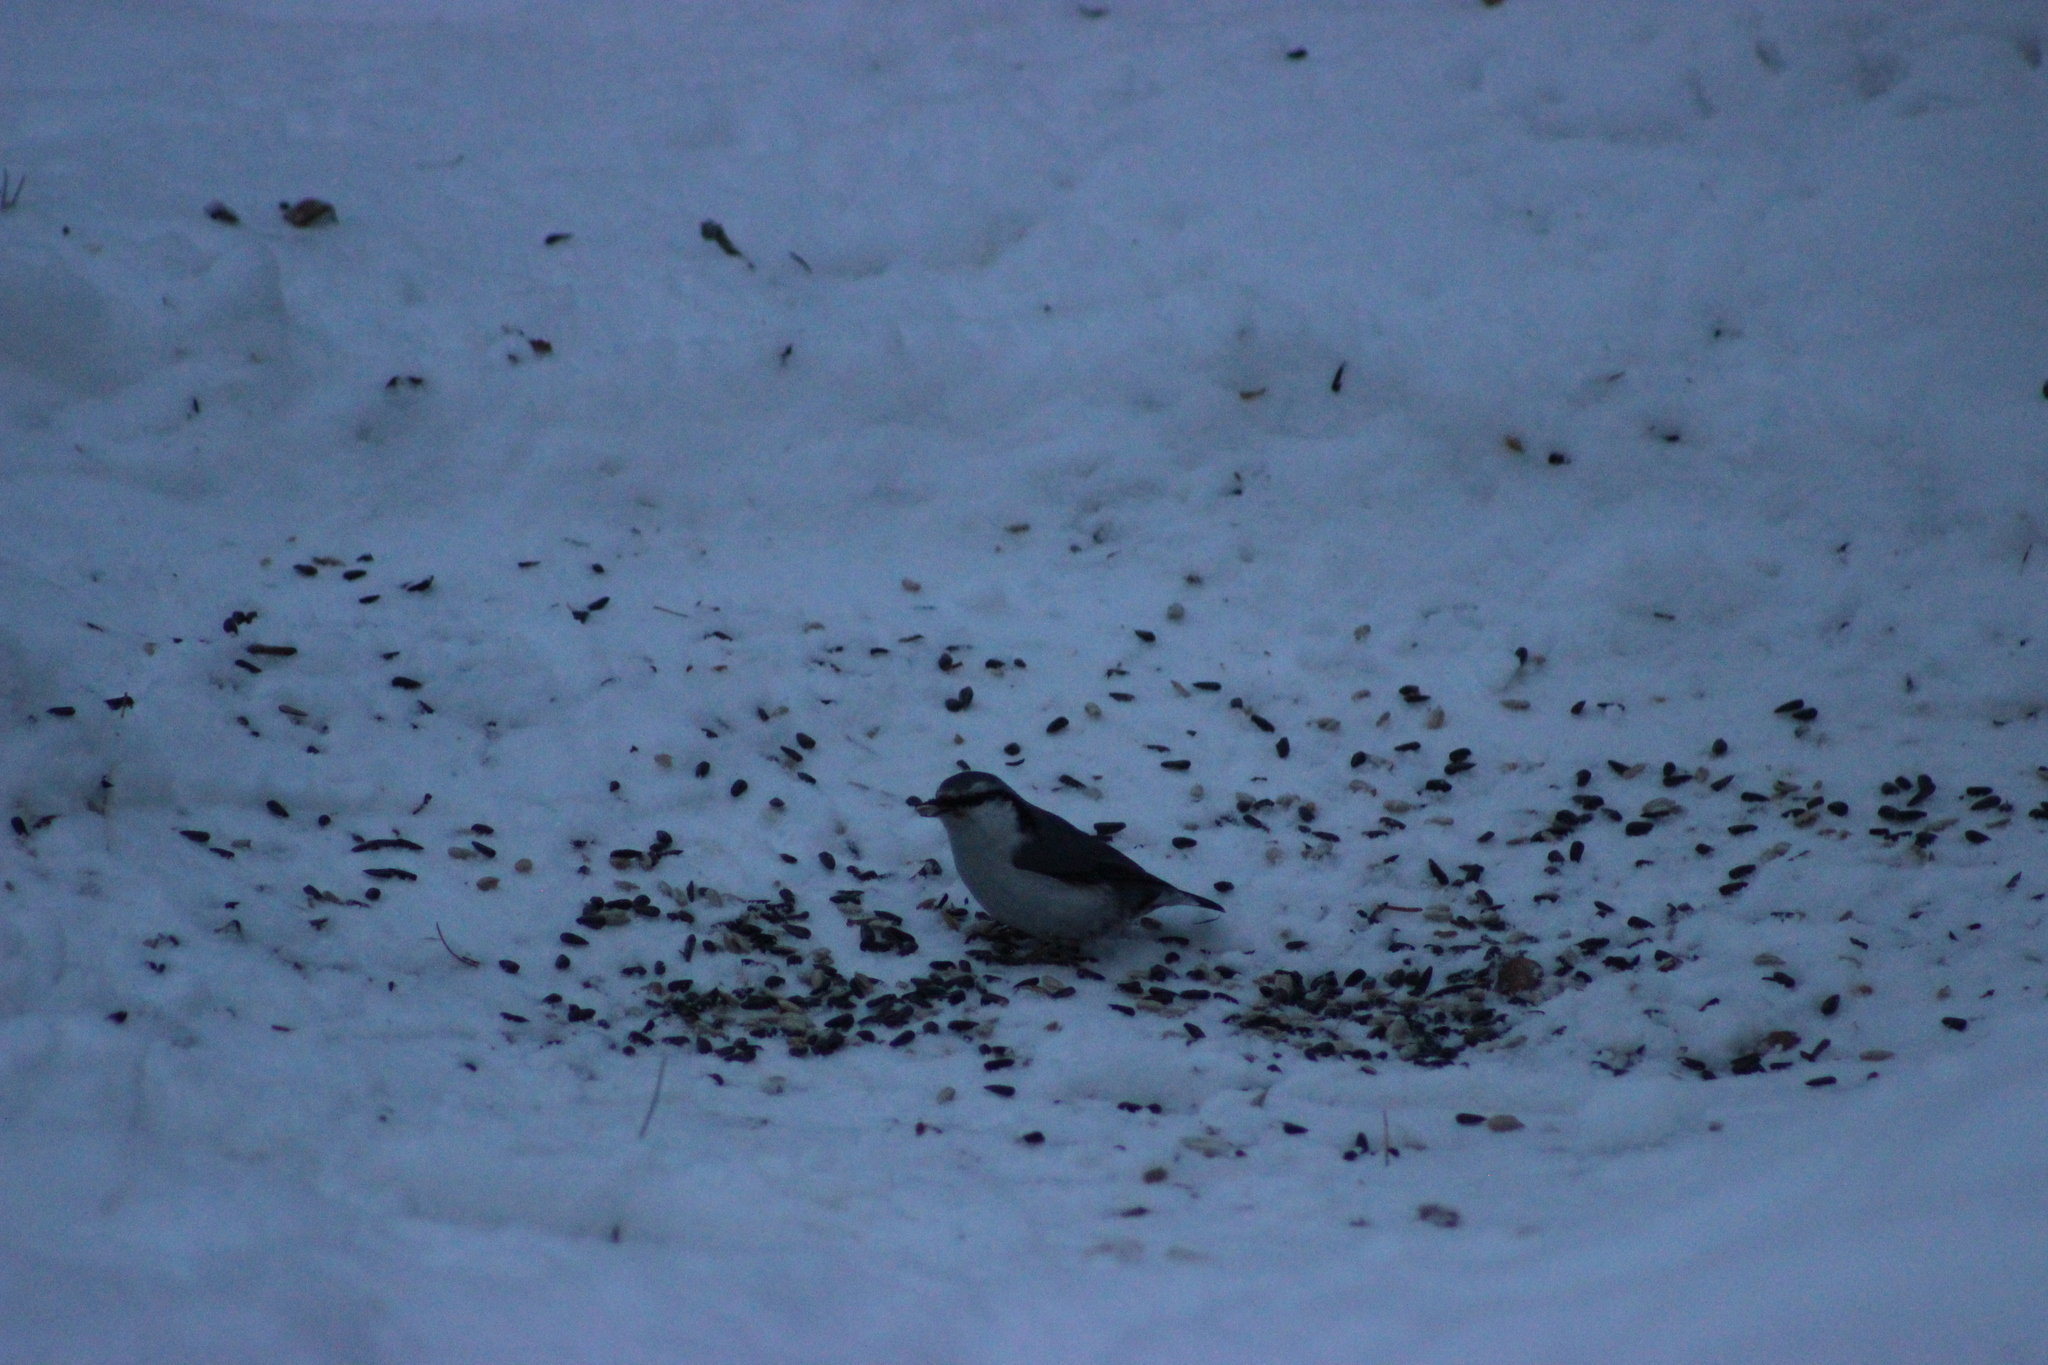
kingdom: Animalia
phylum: Chordata
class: Aves
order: Passeriformes
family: Sittidae
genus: Sitta
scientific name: Sitta europaea
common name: Eurasian nuthatch
